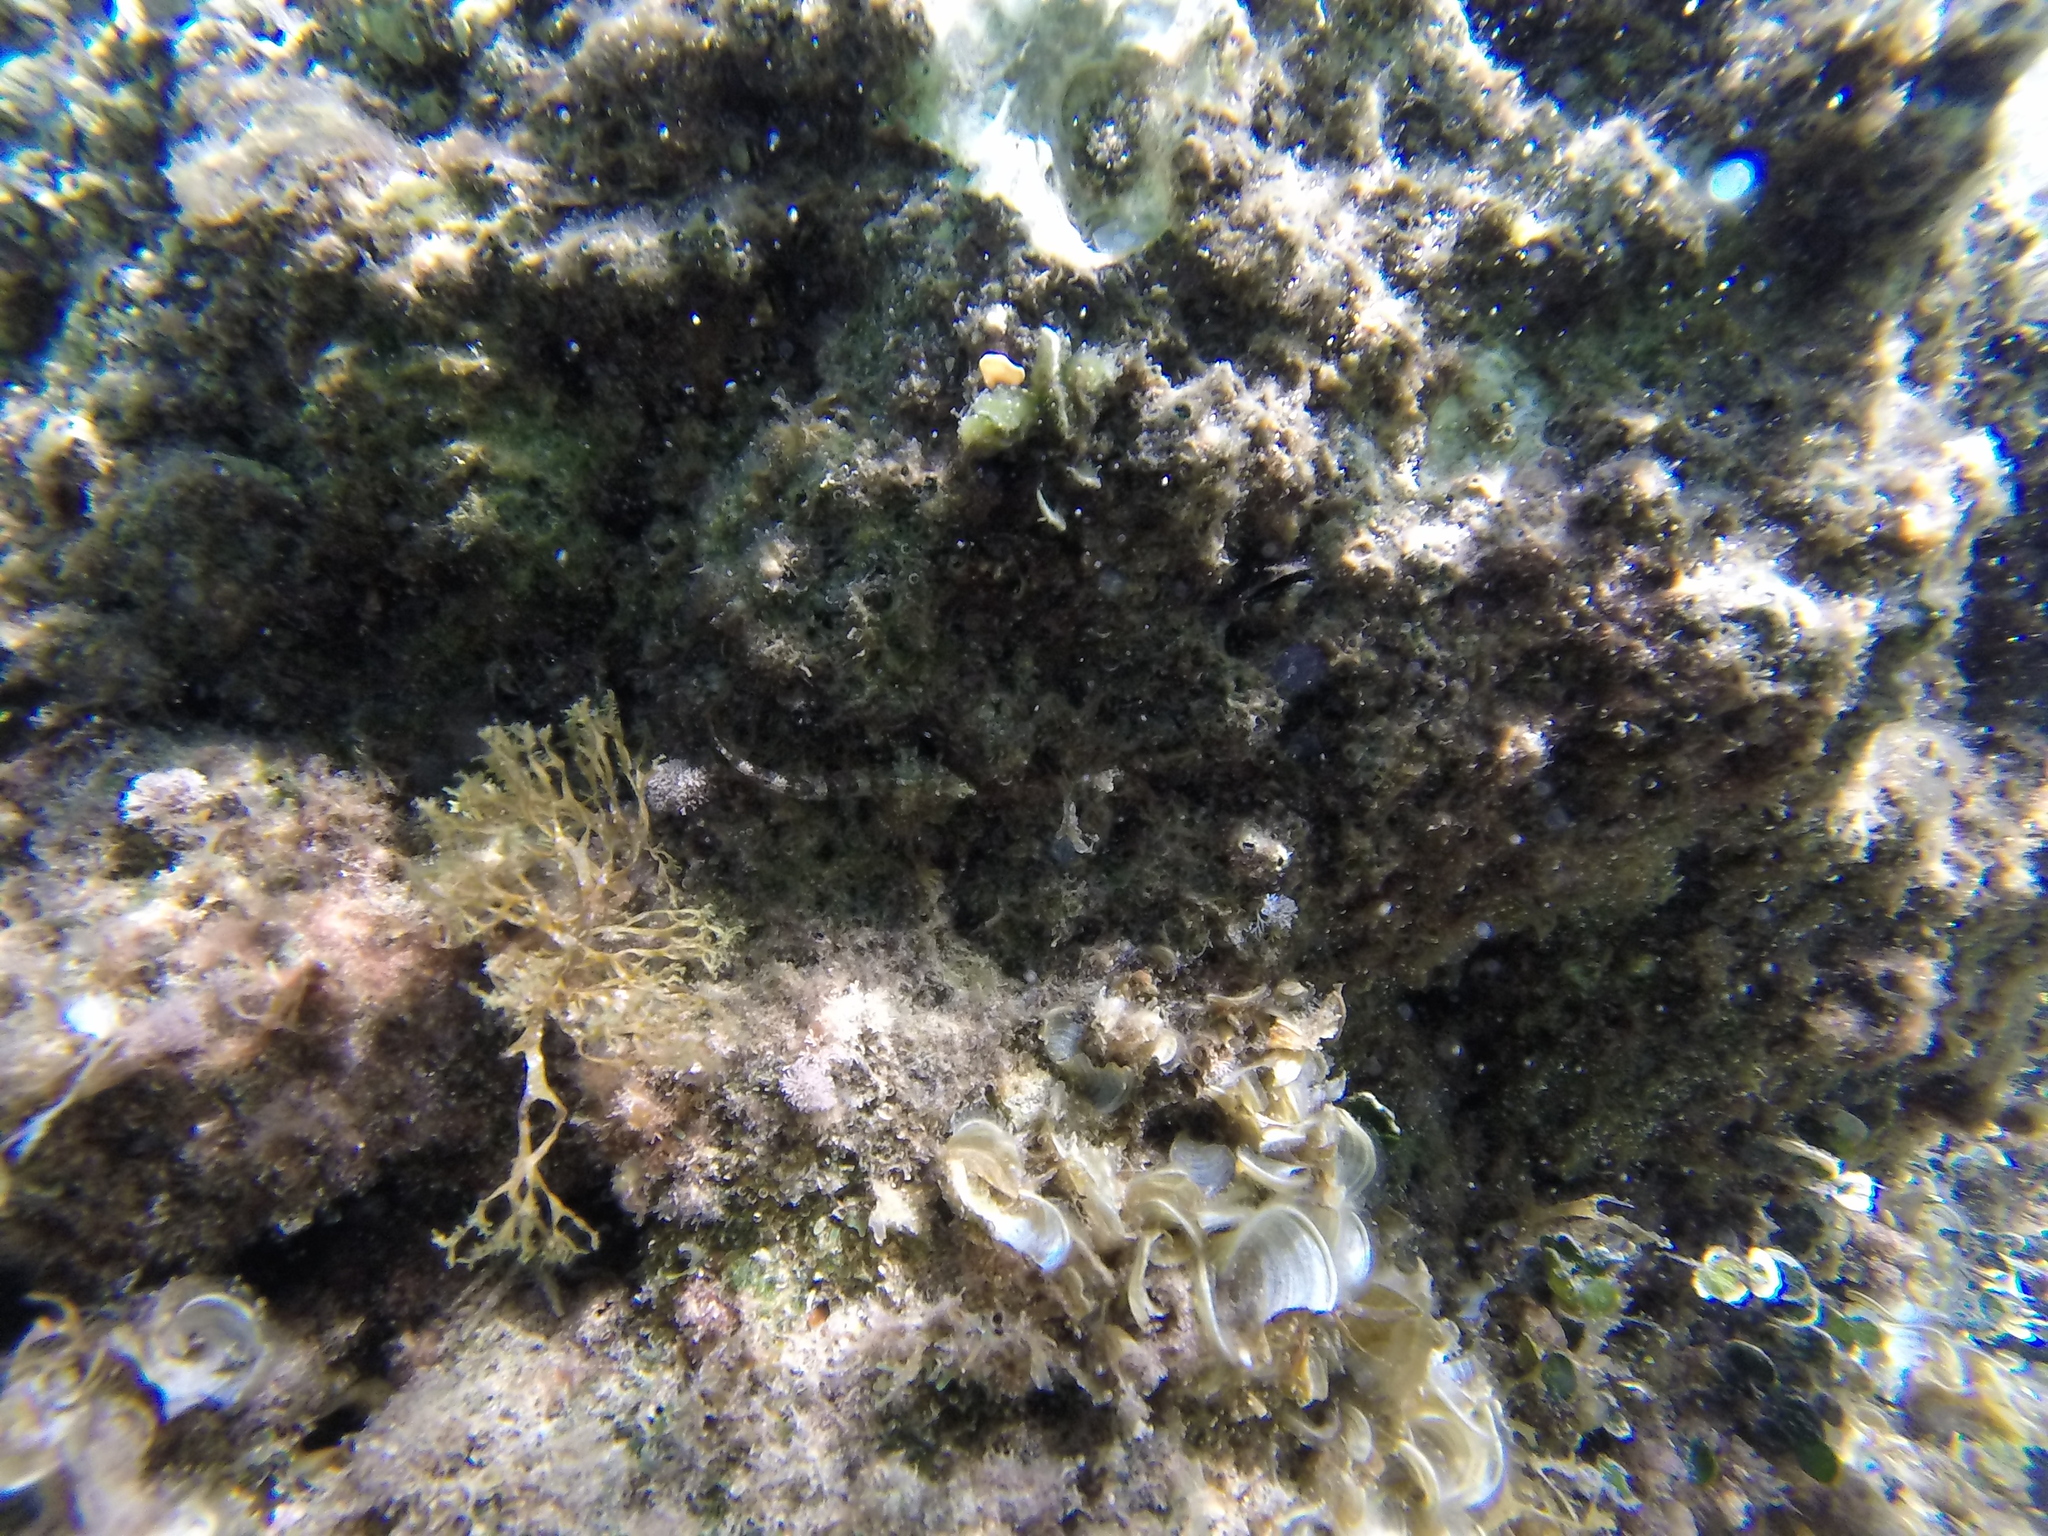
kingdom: Animalia
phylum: Chordata
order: Perciformes
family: Tripterygiidae
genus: Tripterygion
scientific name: Tripterygion tripteronotum
